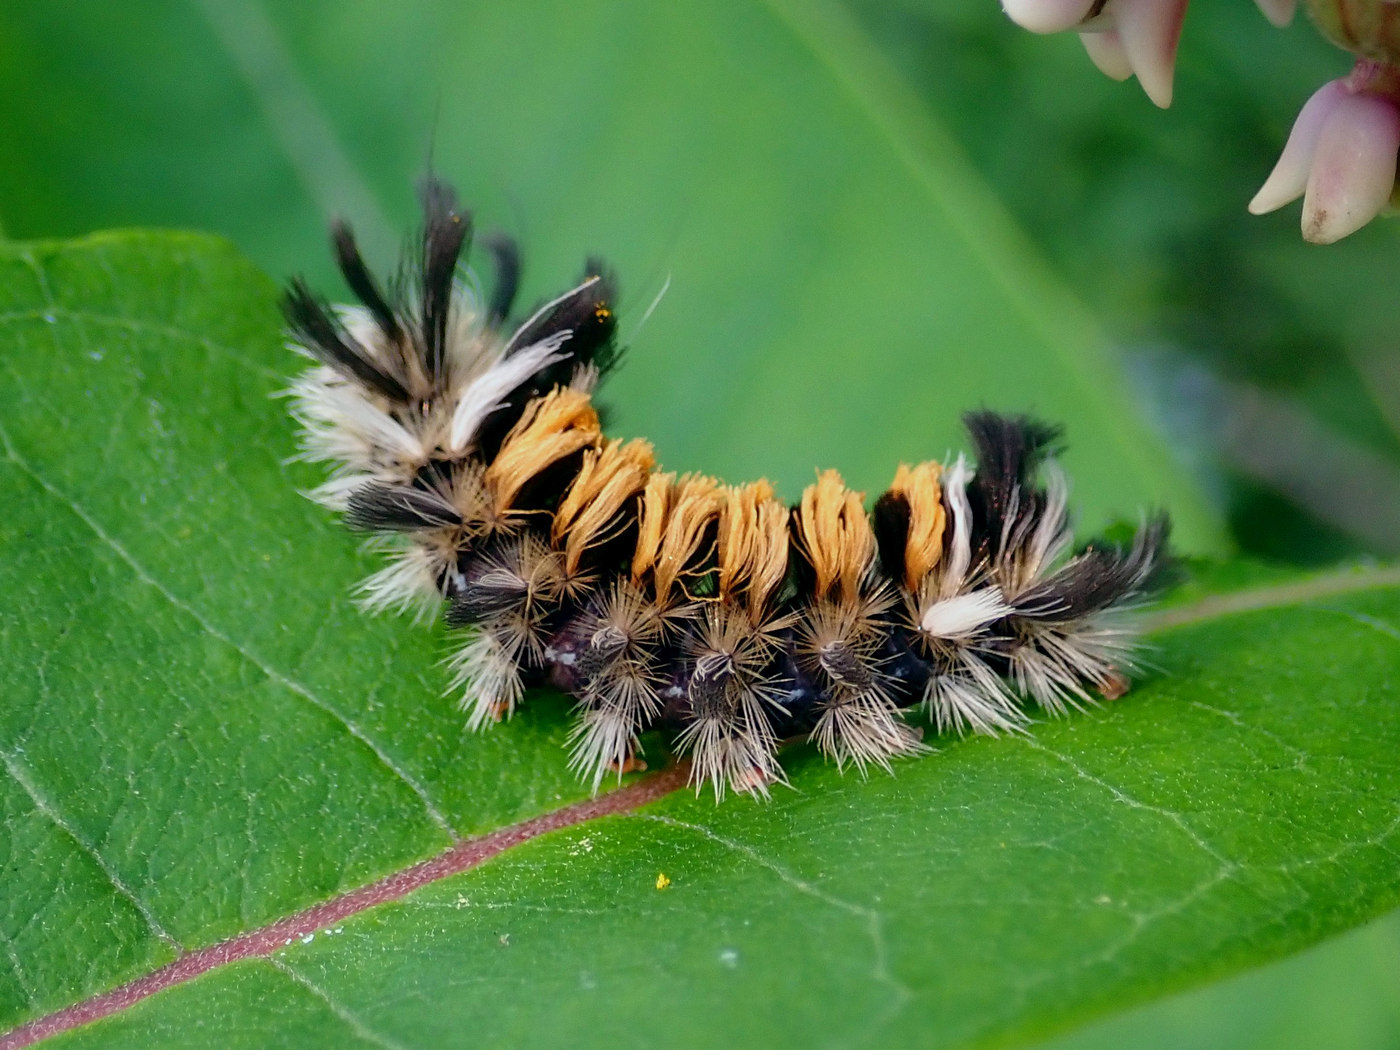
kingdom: Animalia
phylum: Arthropoda
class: Insecta
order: Lepidoptera
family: Erebidae
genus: Euchaetes
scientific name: Euchaetes egle
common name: Milkweed tussock moth
